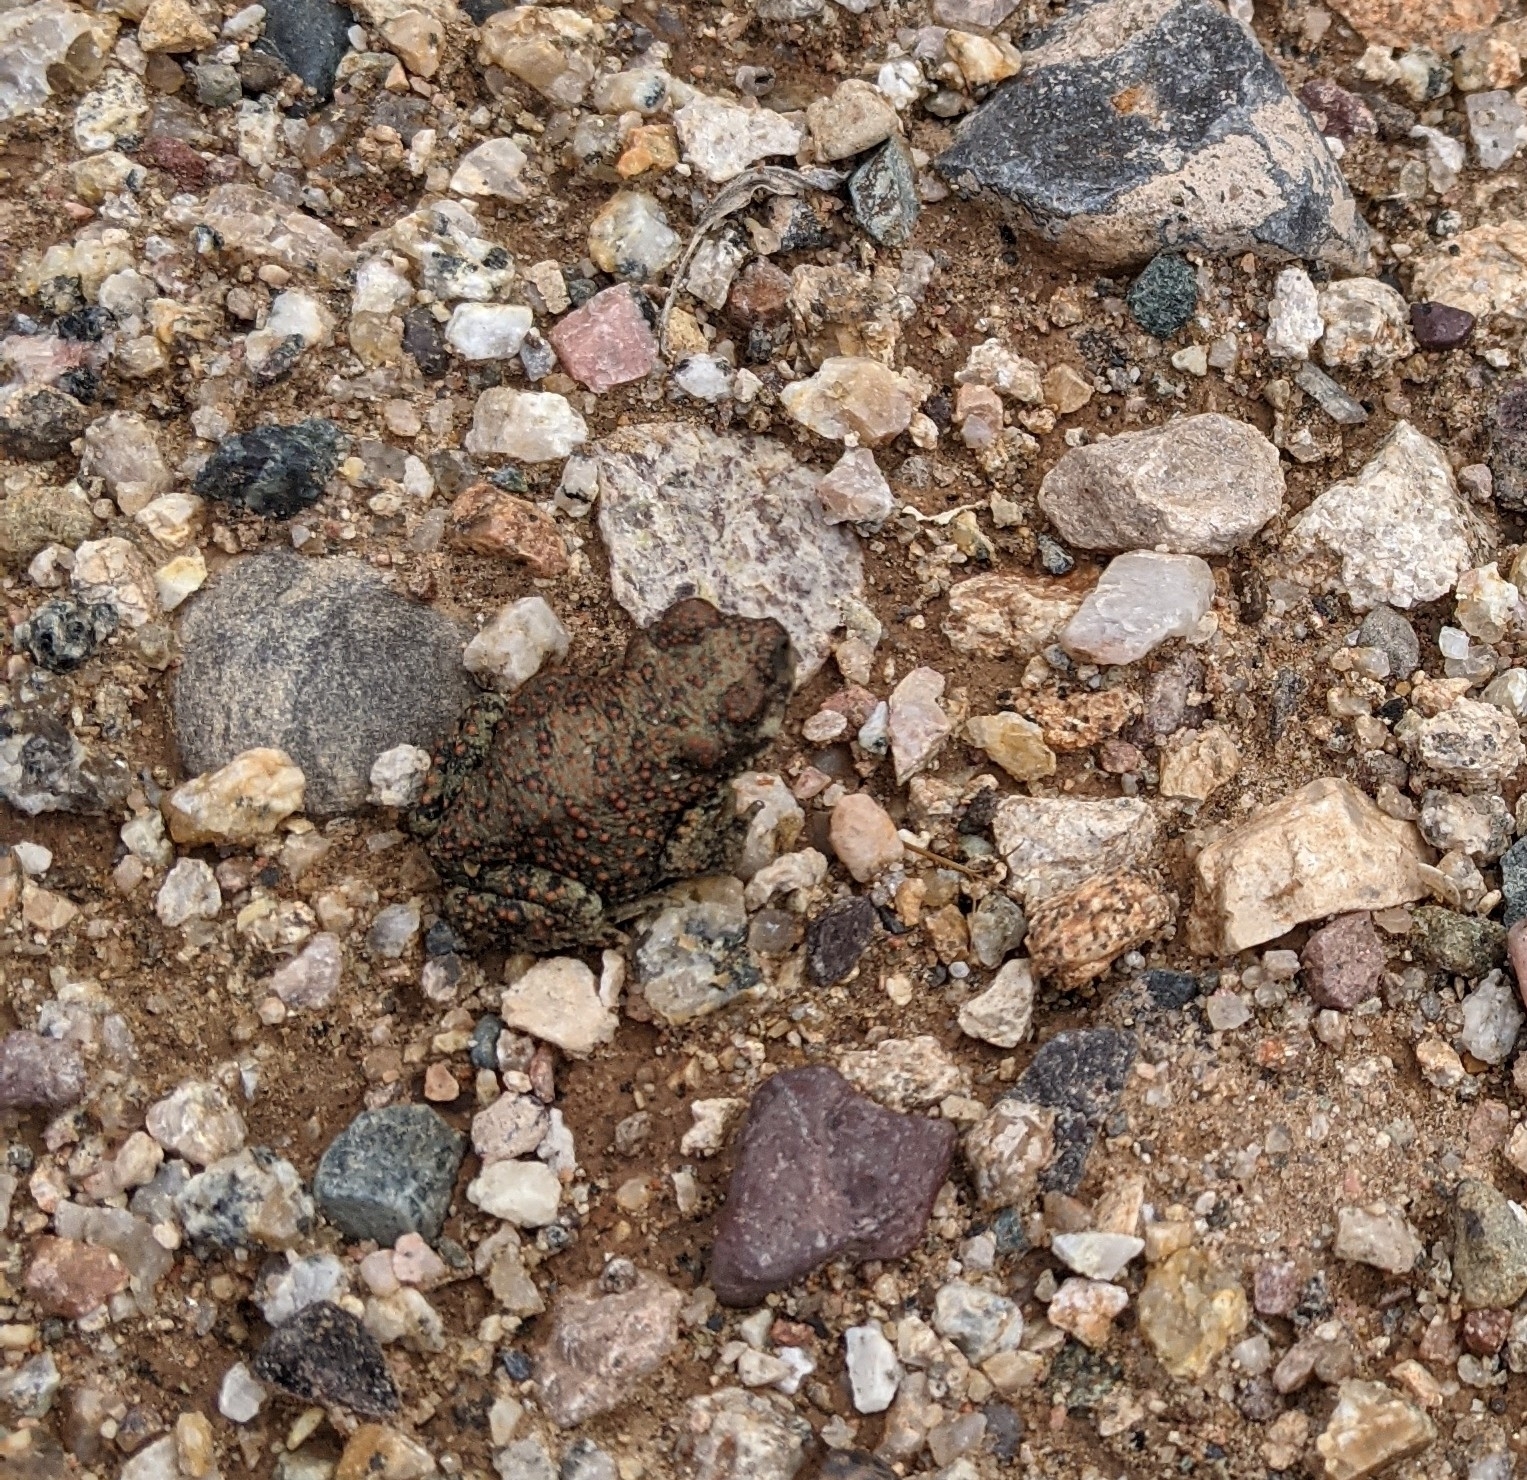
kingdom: Animalia
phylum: Chordata
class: Amphibia
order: Anura
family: Bufonidae
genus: Anaxyrus
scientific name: Anaxyrus punctatus
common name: Red-spotted toad
